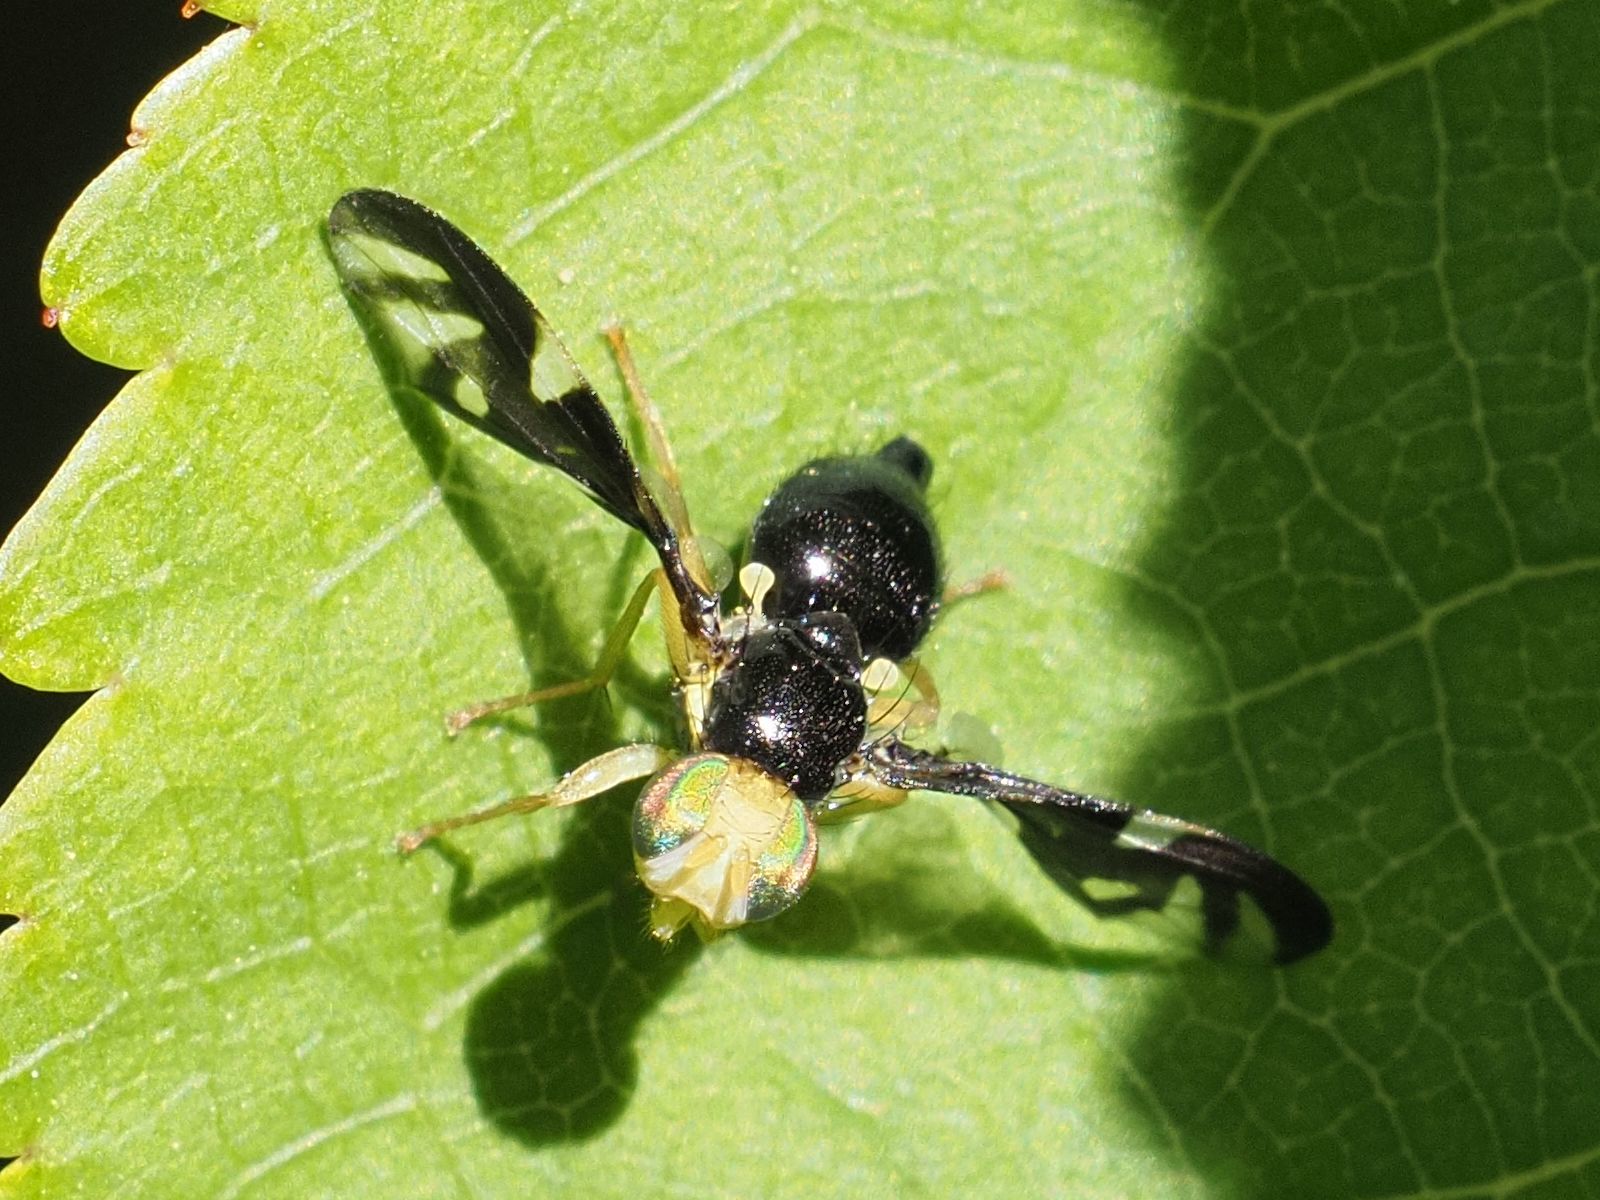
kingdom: Animalia
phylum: Arthropoda
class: Insecta
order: Diptera
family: Tephritidae
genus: Euleia
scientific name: Euleia heraclei
